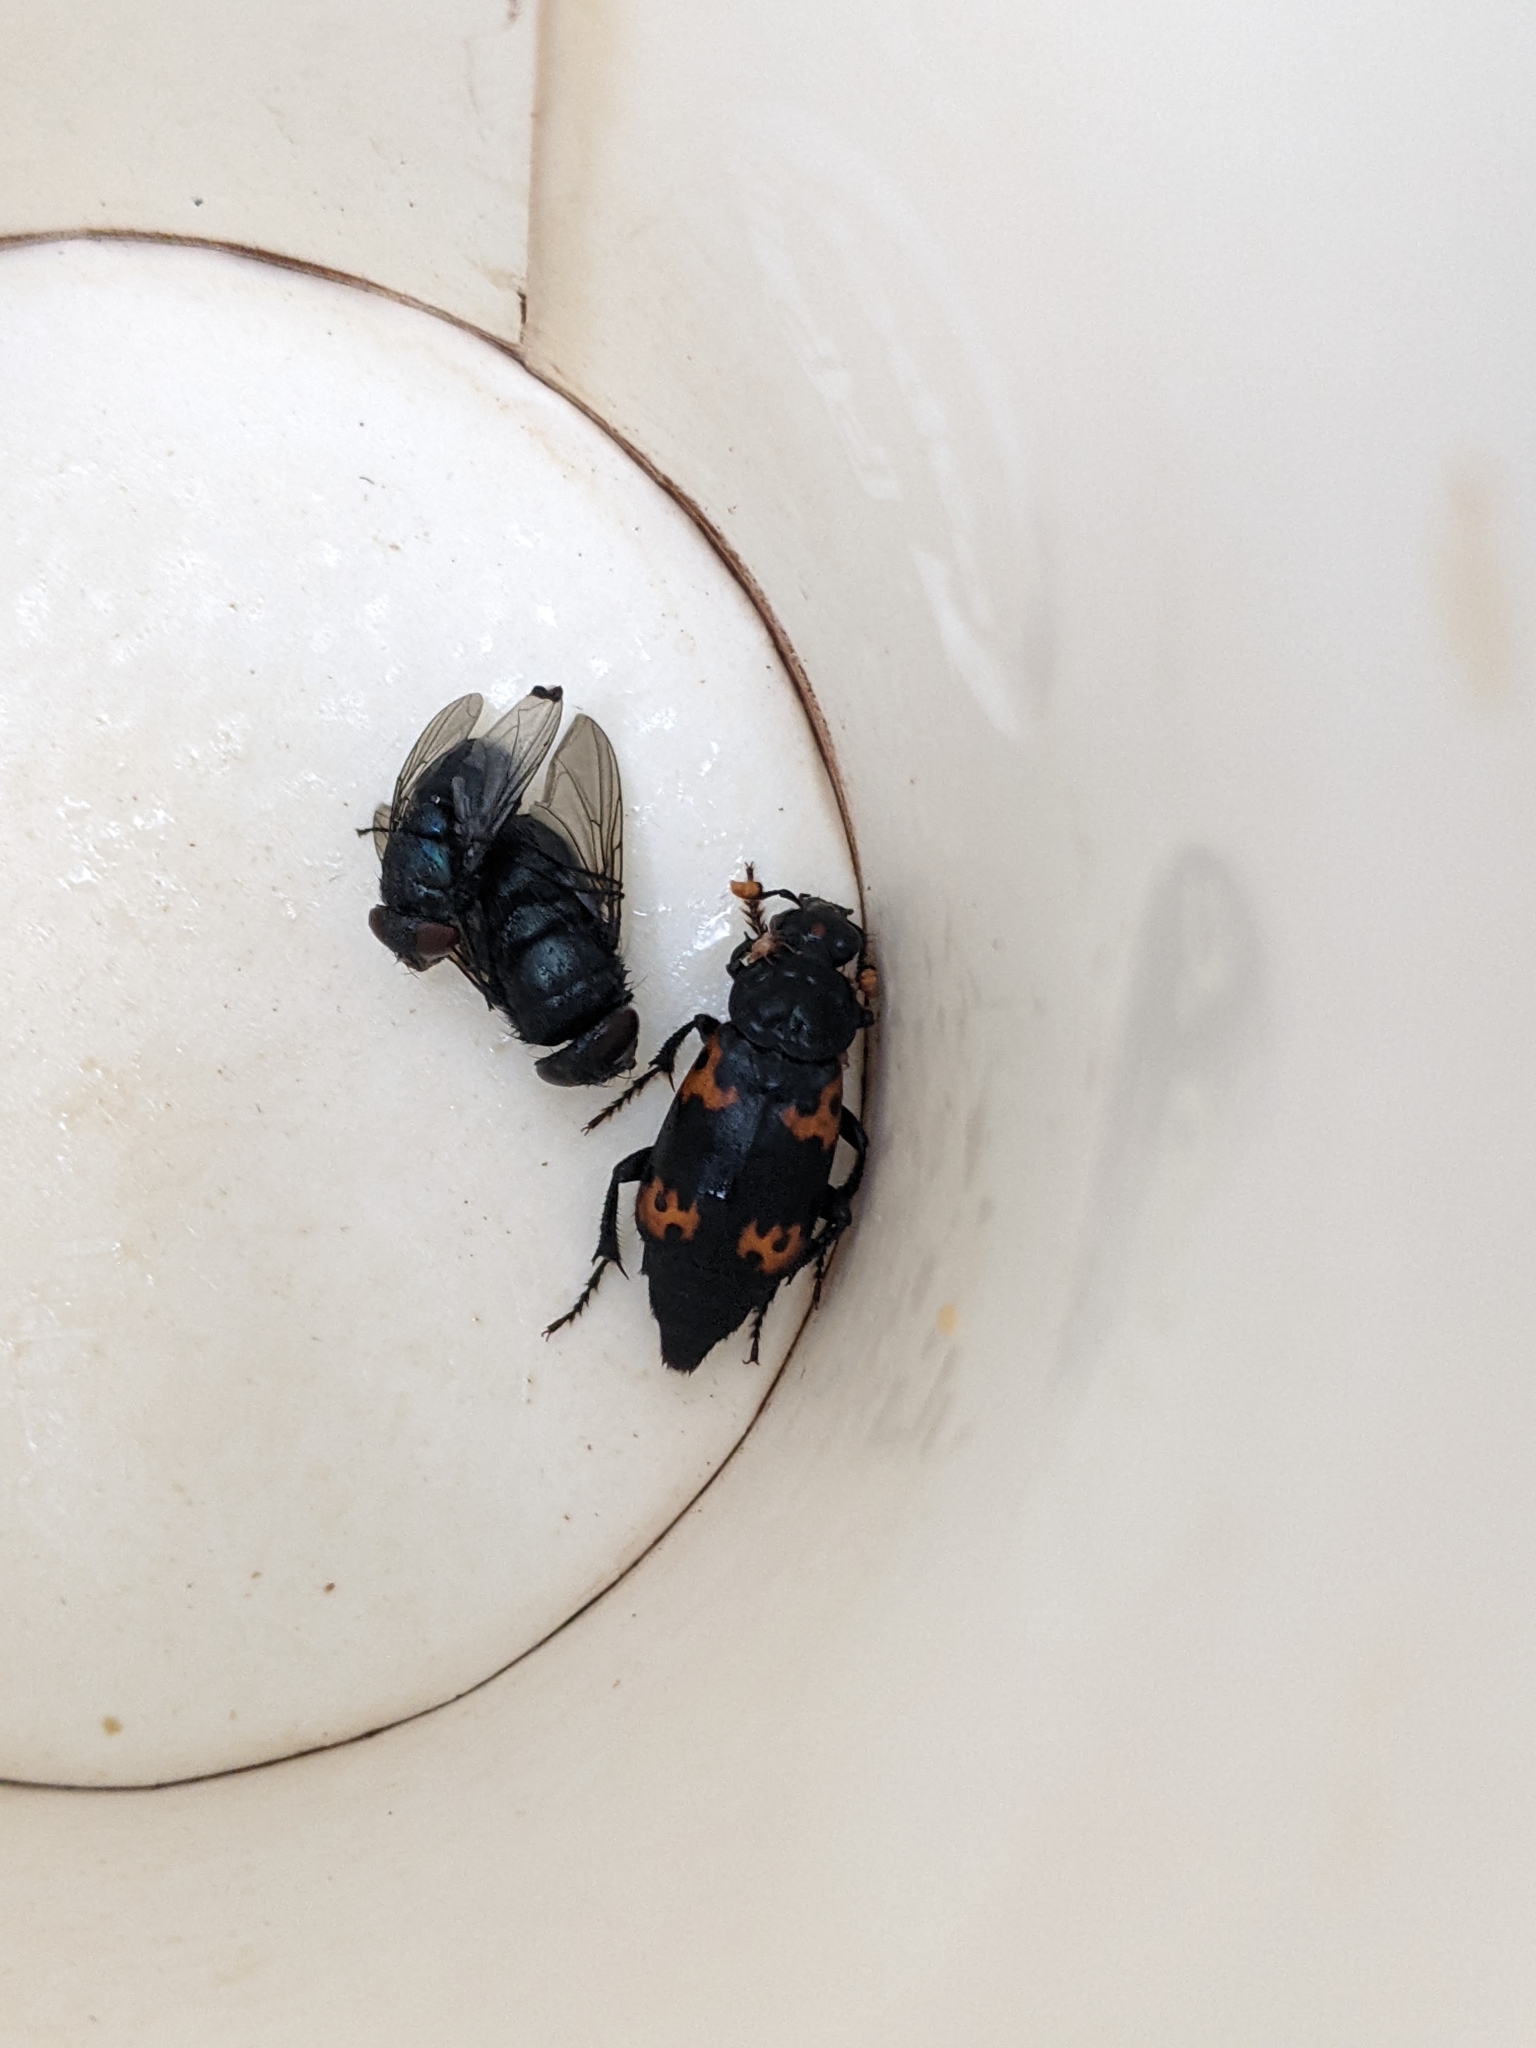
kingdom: Animalia
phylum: Arthropoda
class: Insecta
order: Coleoptera
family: Staphylinidae
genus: Nicrophorus
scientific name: Nicrophorus nepalensis
